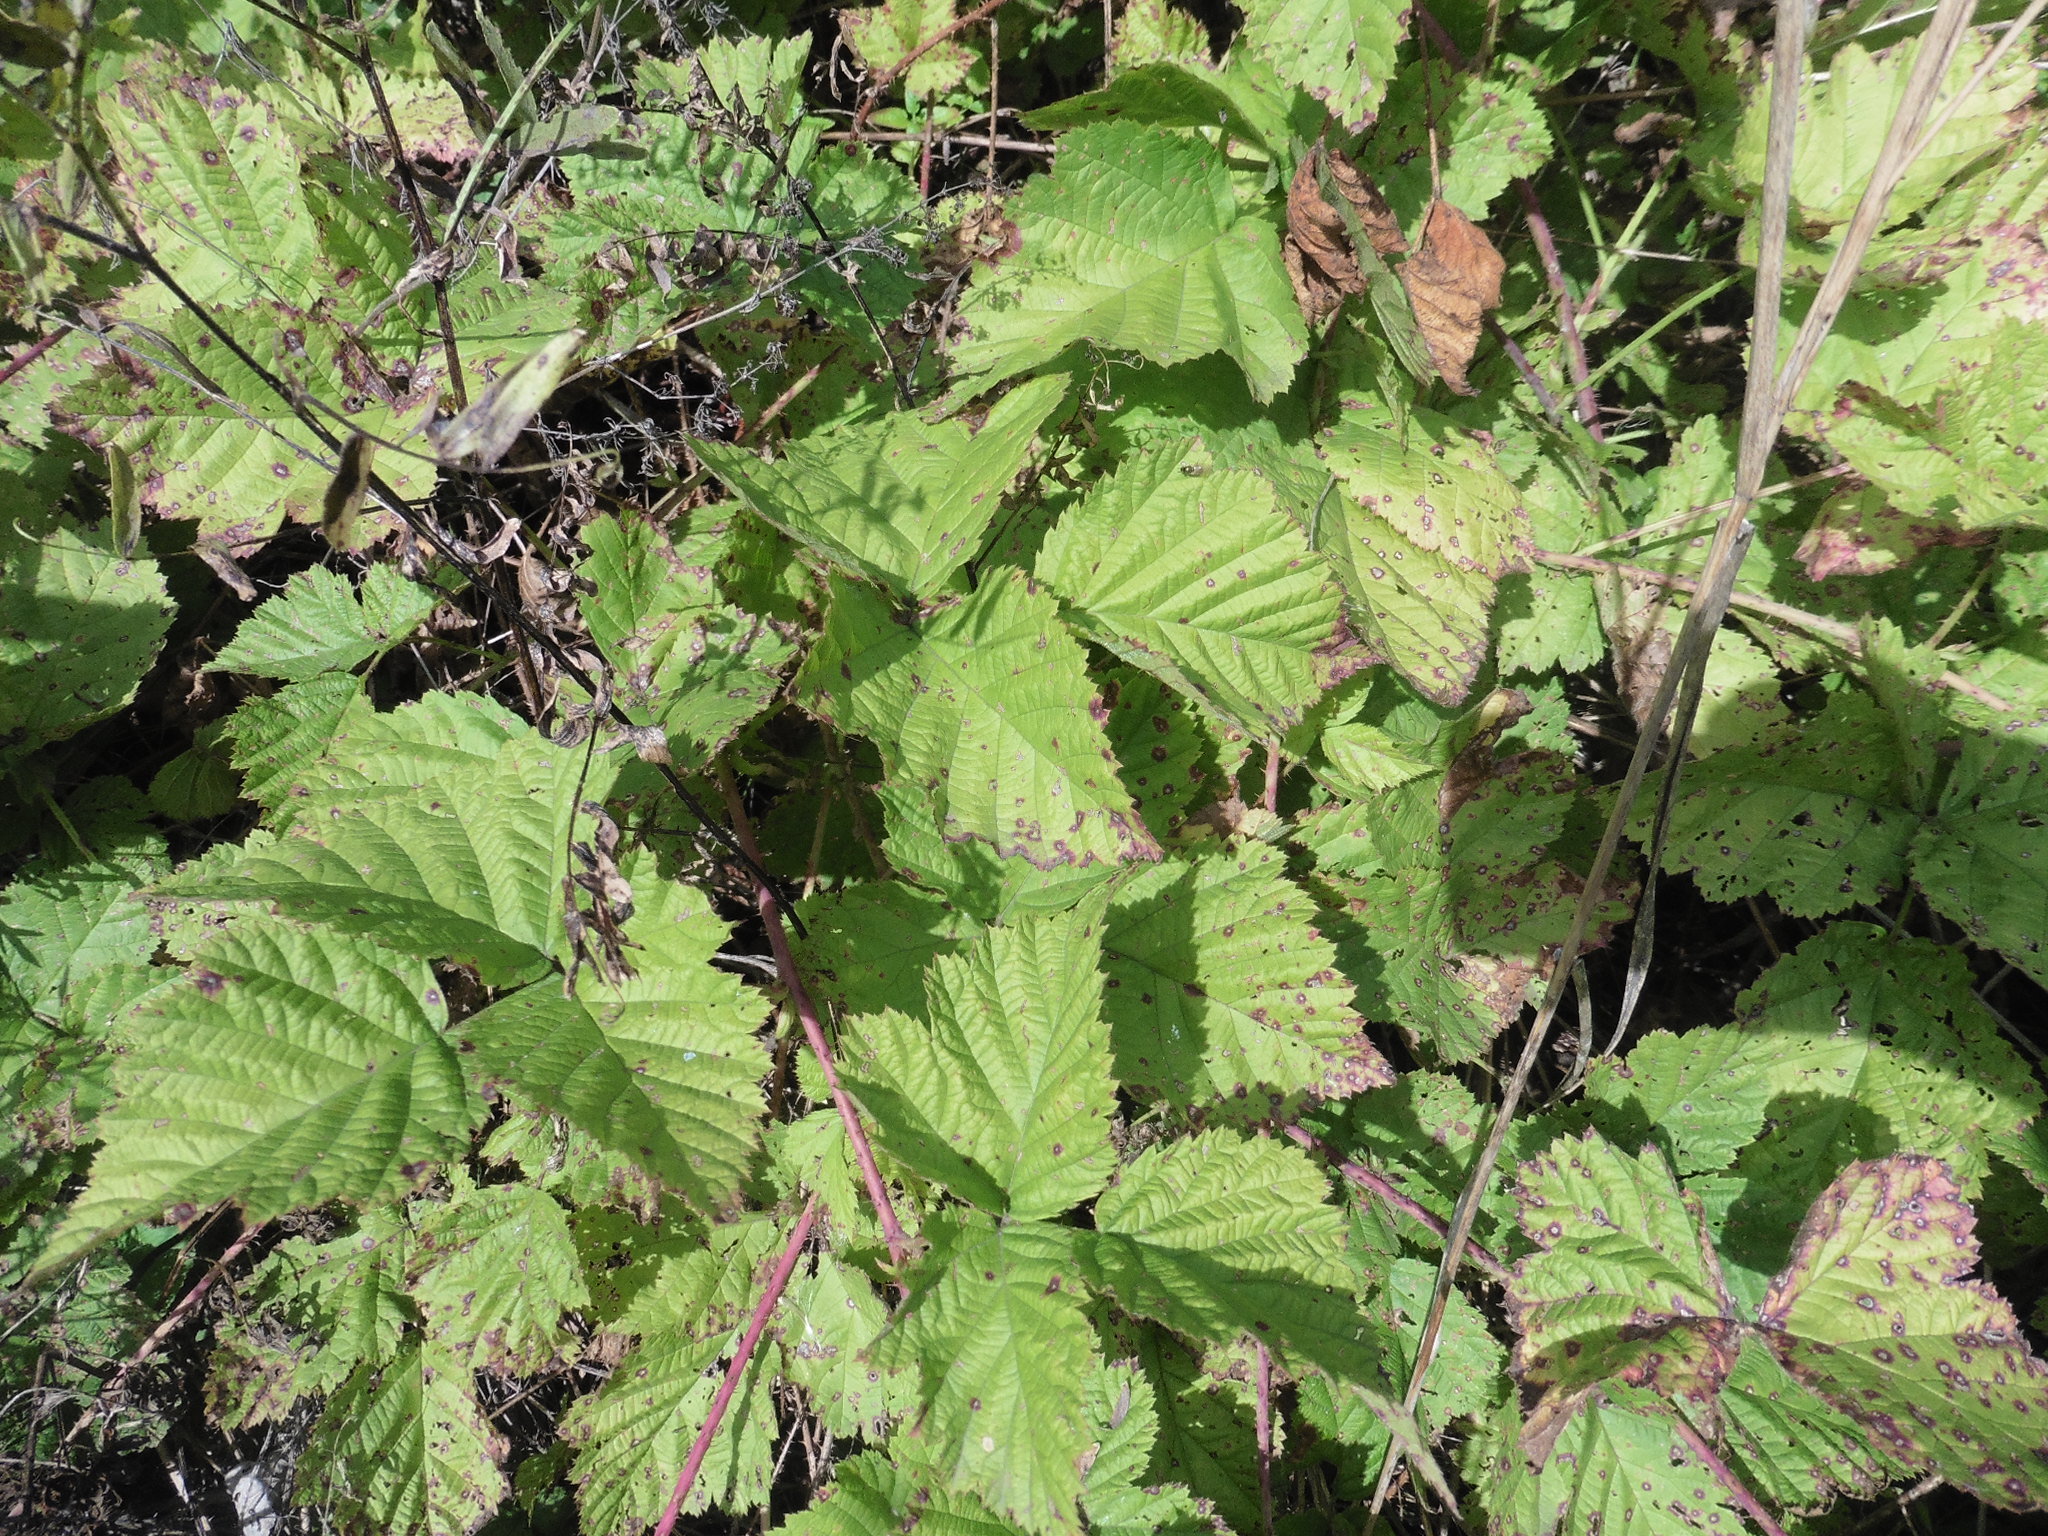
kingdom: Plantae
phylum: Tracheophyta
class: Magnoliopsida
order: Rosales
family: Rosaceae
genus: Rubus
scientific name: Rubus caesius
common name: Dewberry
